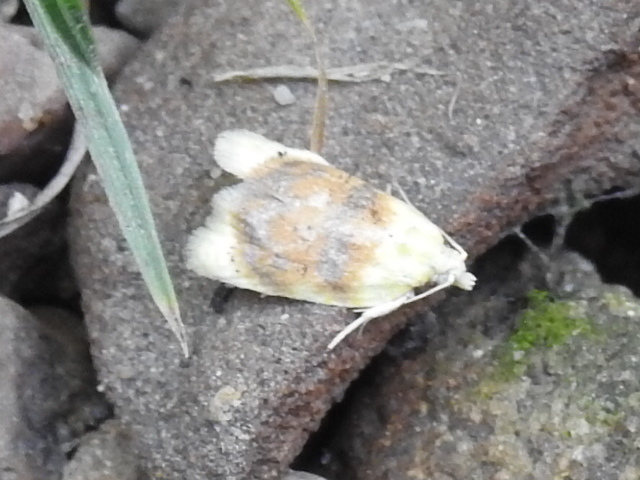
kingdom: Animalia
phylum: Arthropoda
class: Insecta
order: Lepidoptera
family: Tortricidae
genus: Acleris
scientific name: Acleris semipurpurana
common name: Oak leaftier moth
